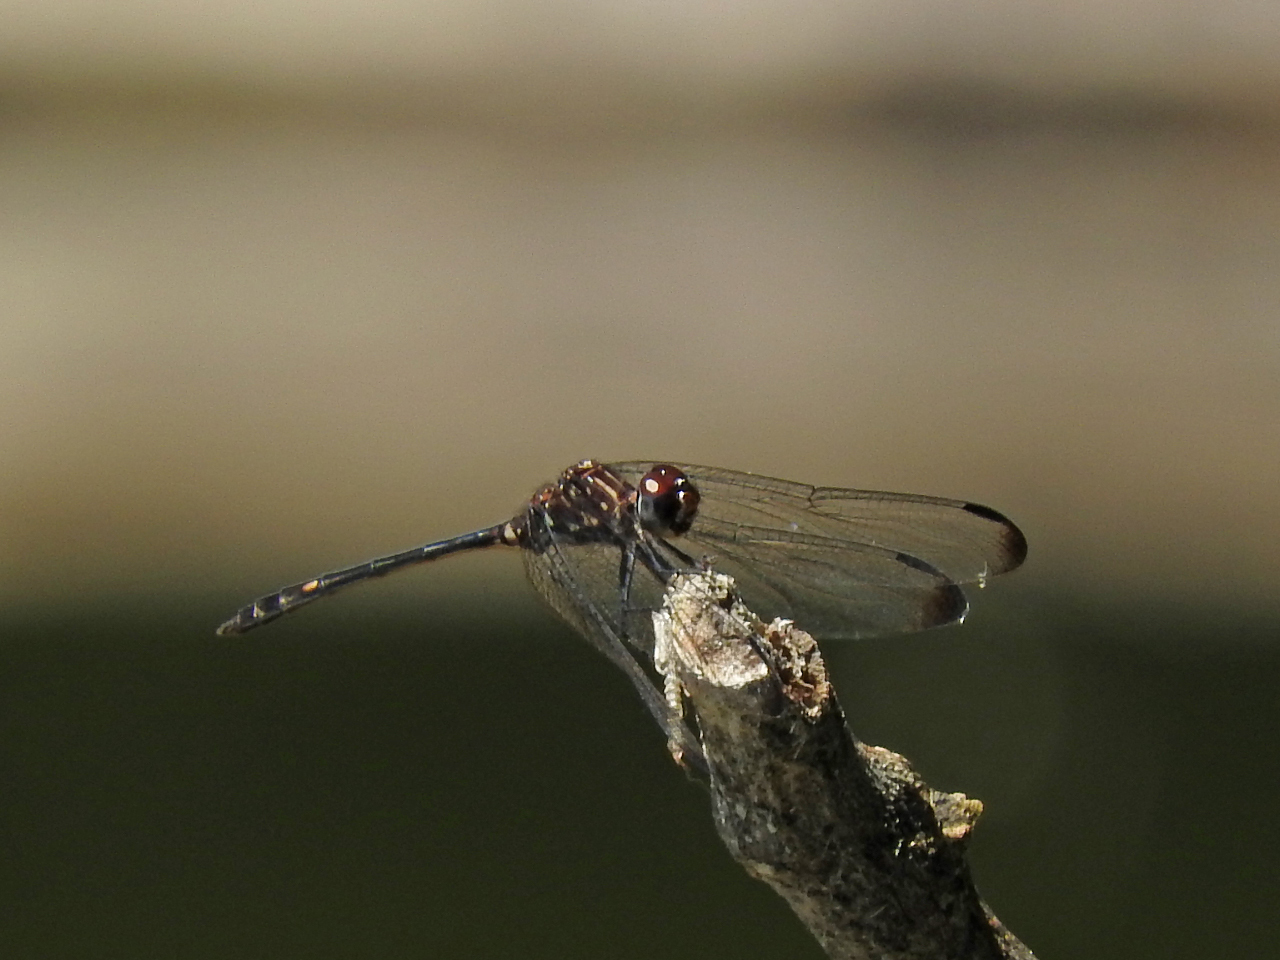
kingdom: Animalia
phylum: Arthropoda
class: Insecta
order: Odonata
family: Libellulidae
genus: Dythemis
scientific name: Dythemis velox
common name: Swift setwing
